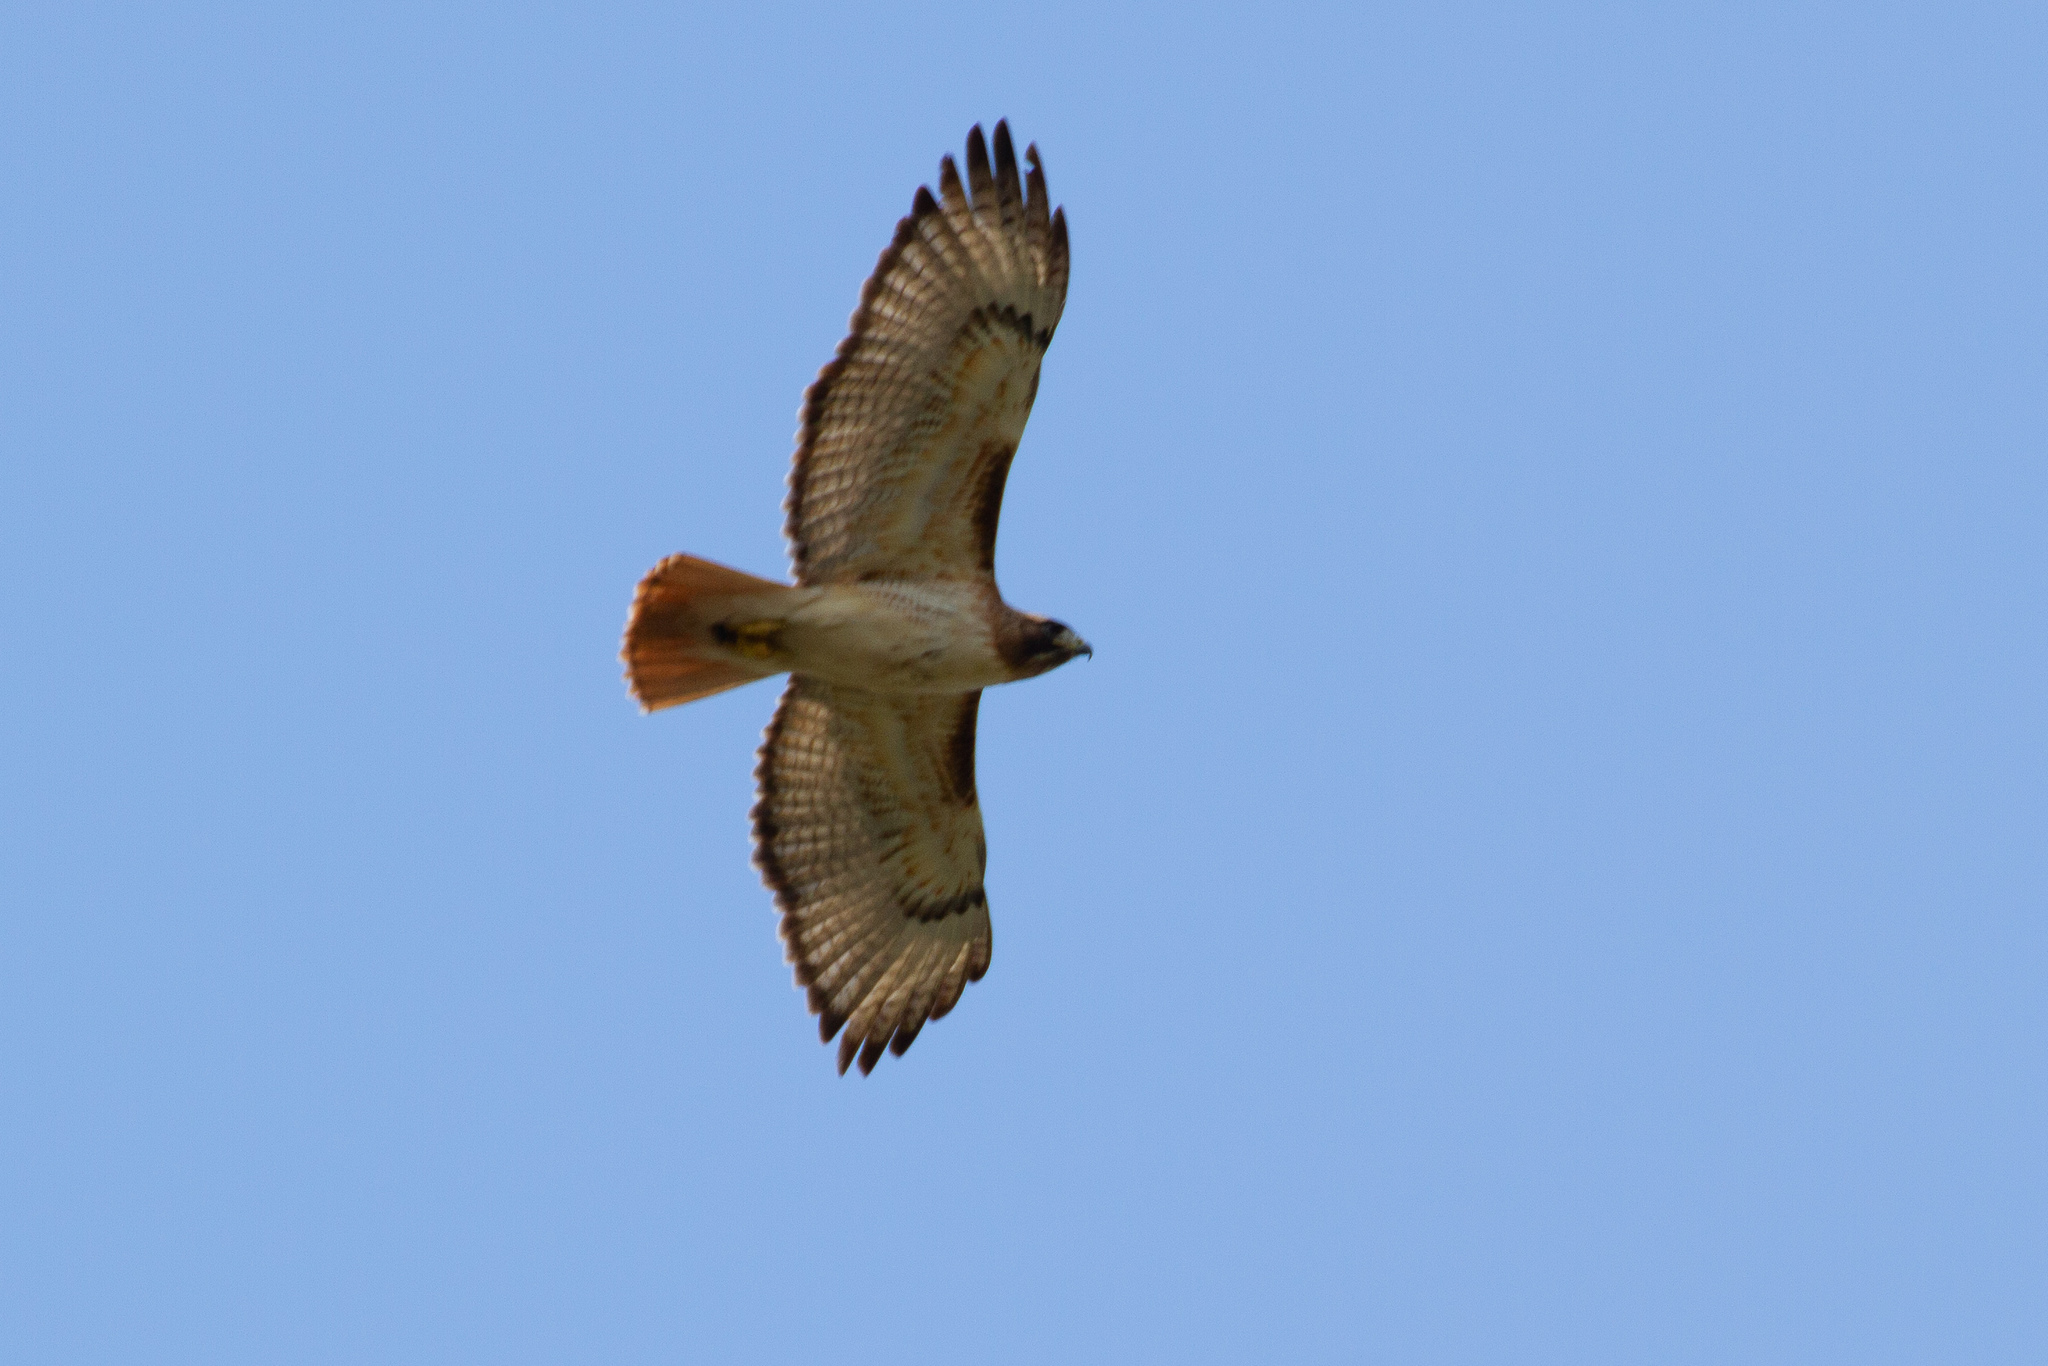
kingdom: Animalia
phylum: Chordata
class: Aves
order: Accipitriformes
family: Accipitridae
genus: Buteo
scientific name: Buteo jamaicensis
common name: Red-tailed hawk
